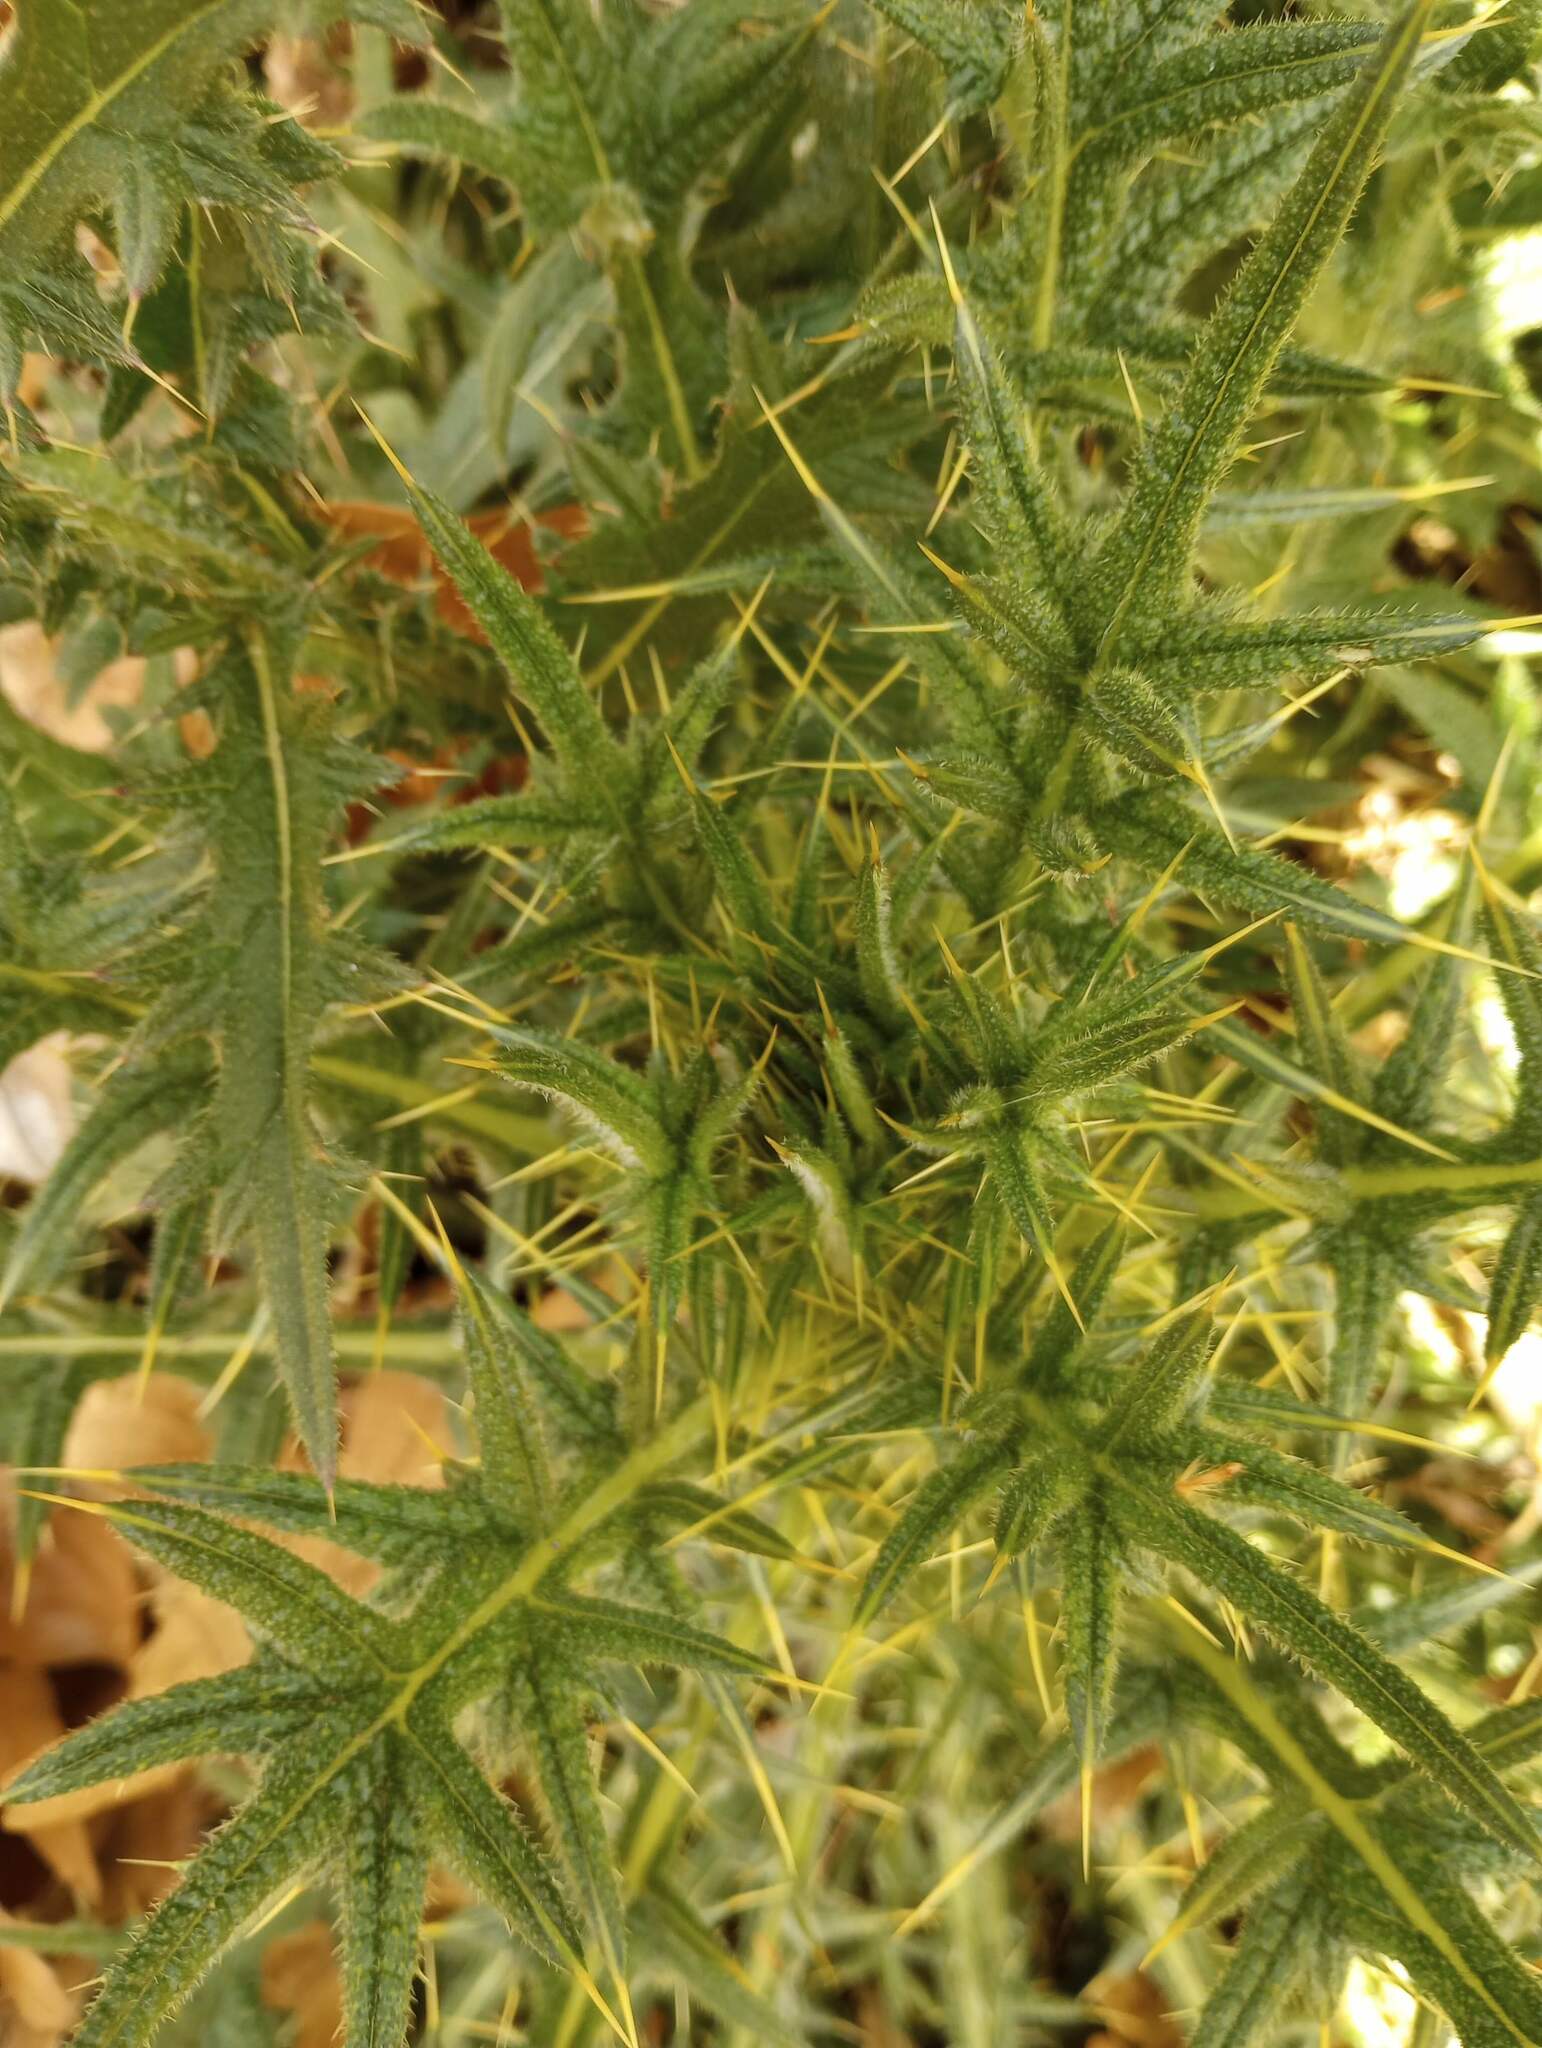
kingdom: Plantae
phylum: Tracheophyta
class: Magnoliopsida
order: Asterales
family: Asteraceae
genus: Cirsium
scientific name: Cirsium vulgare
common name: Bull thistle
